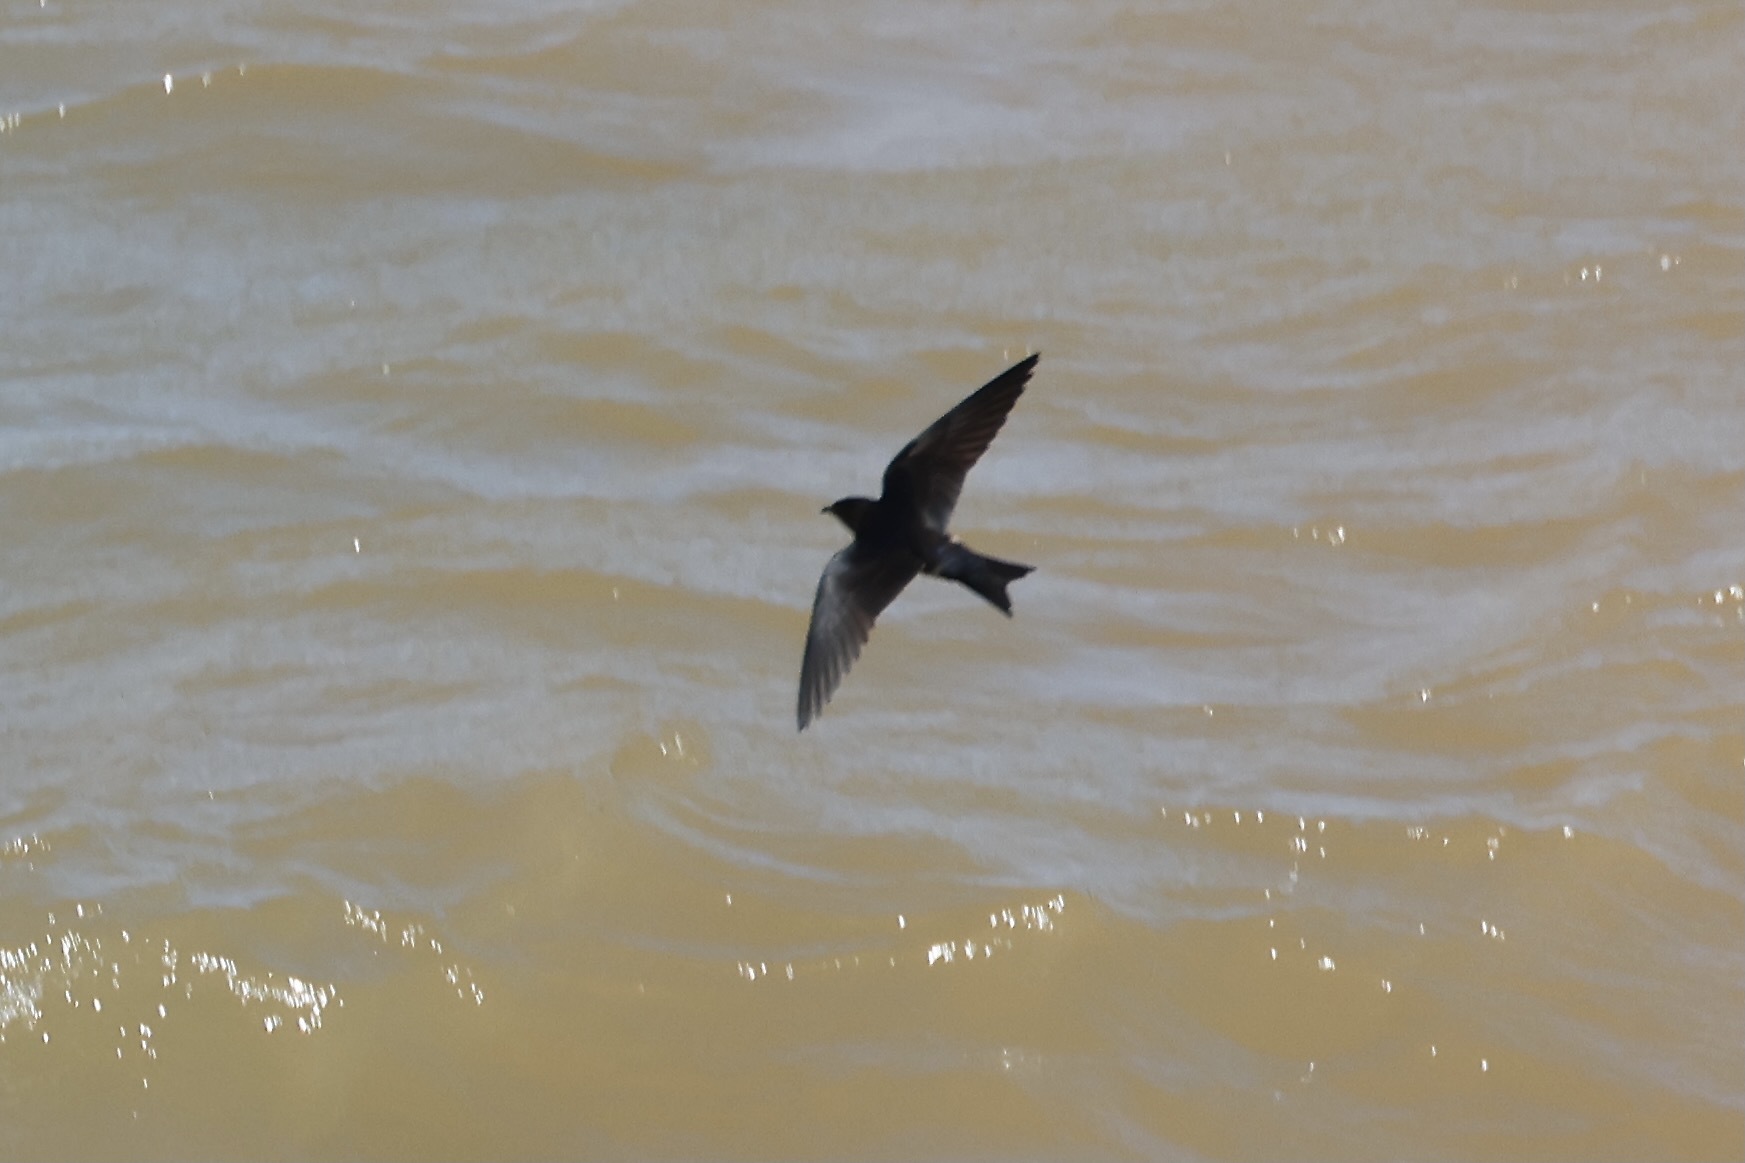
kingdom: Animalia
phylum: Chordata
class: Aves
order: Passeriformes
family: Hirundinidae
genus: Progne
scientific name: Progne chalybea
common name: Grey-breasted martin
